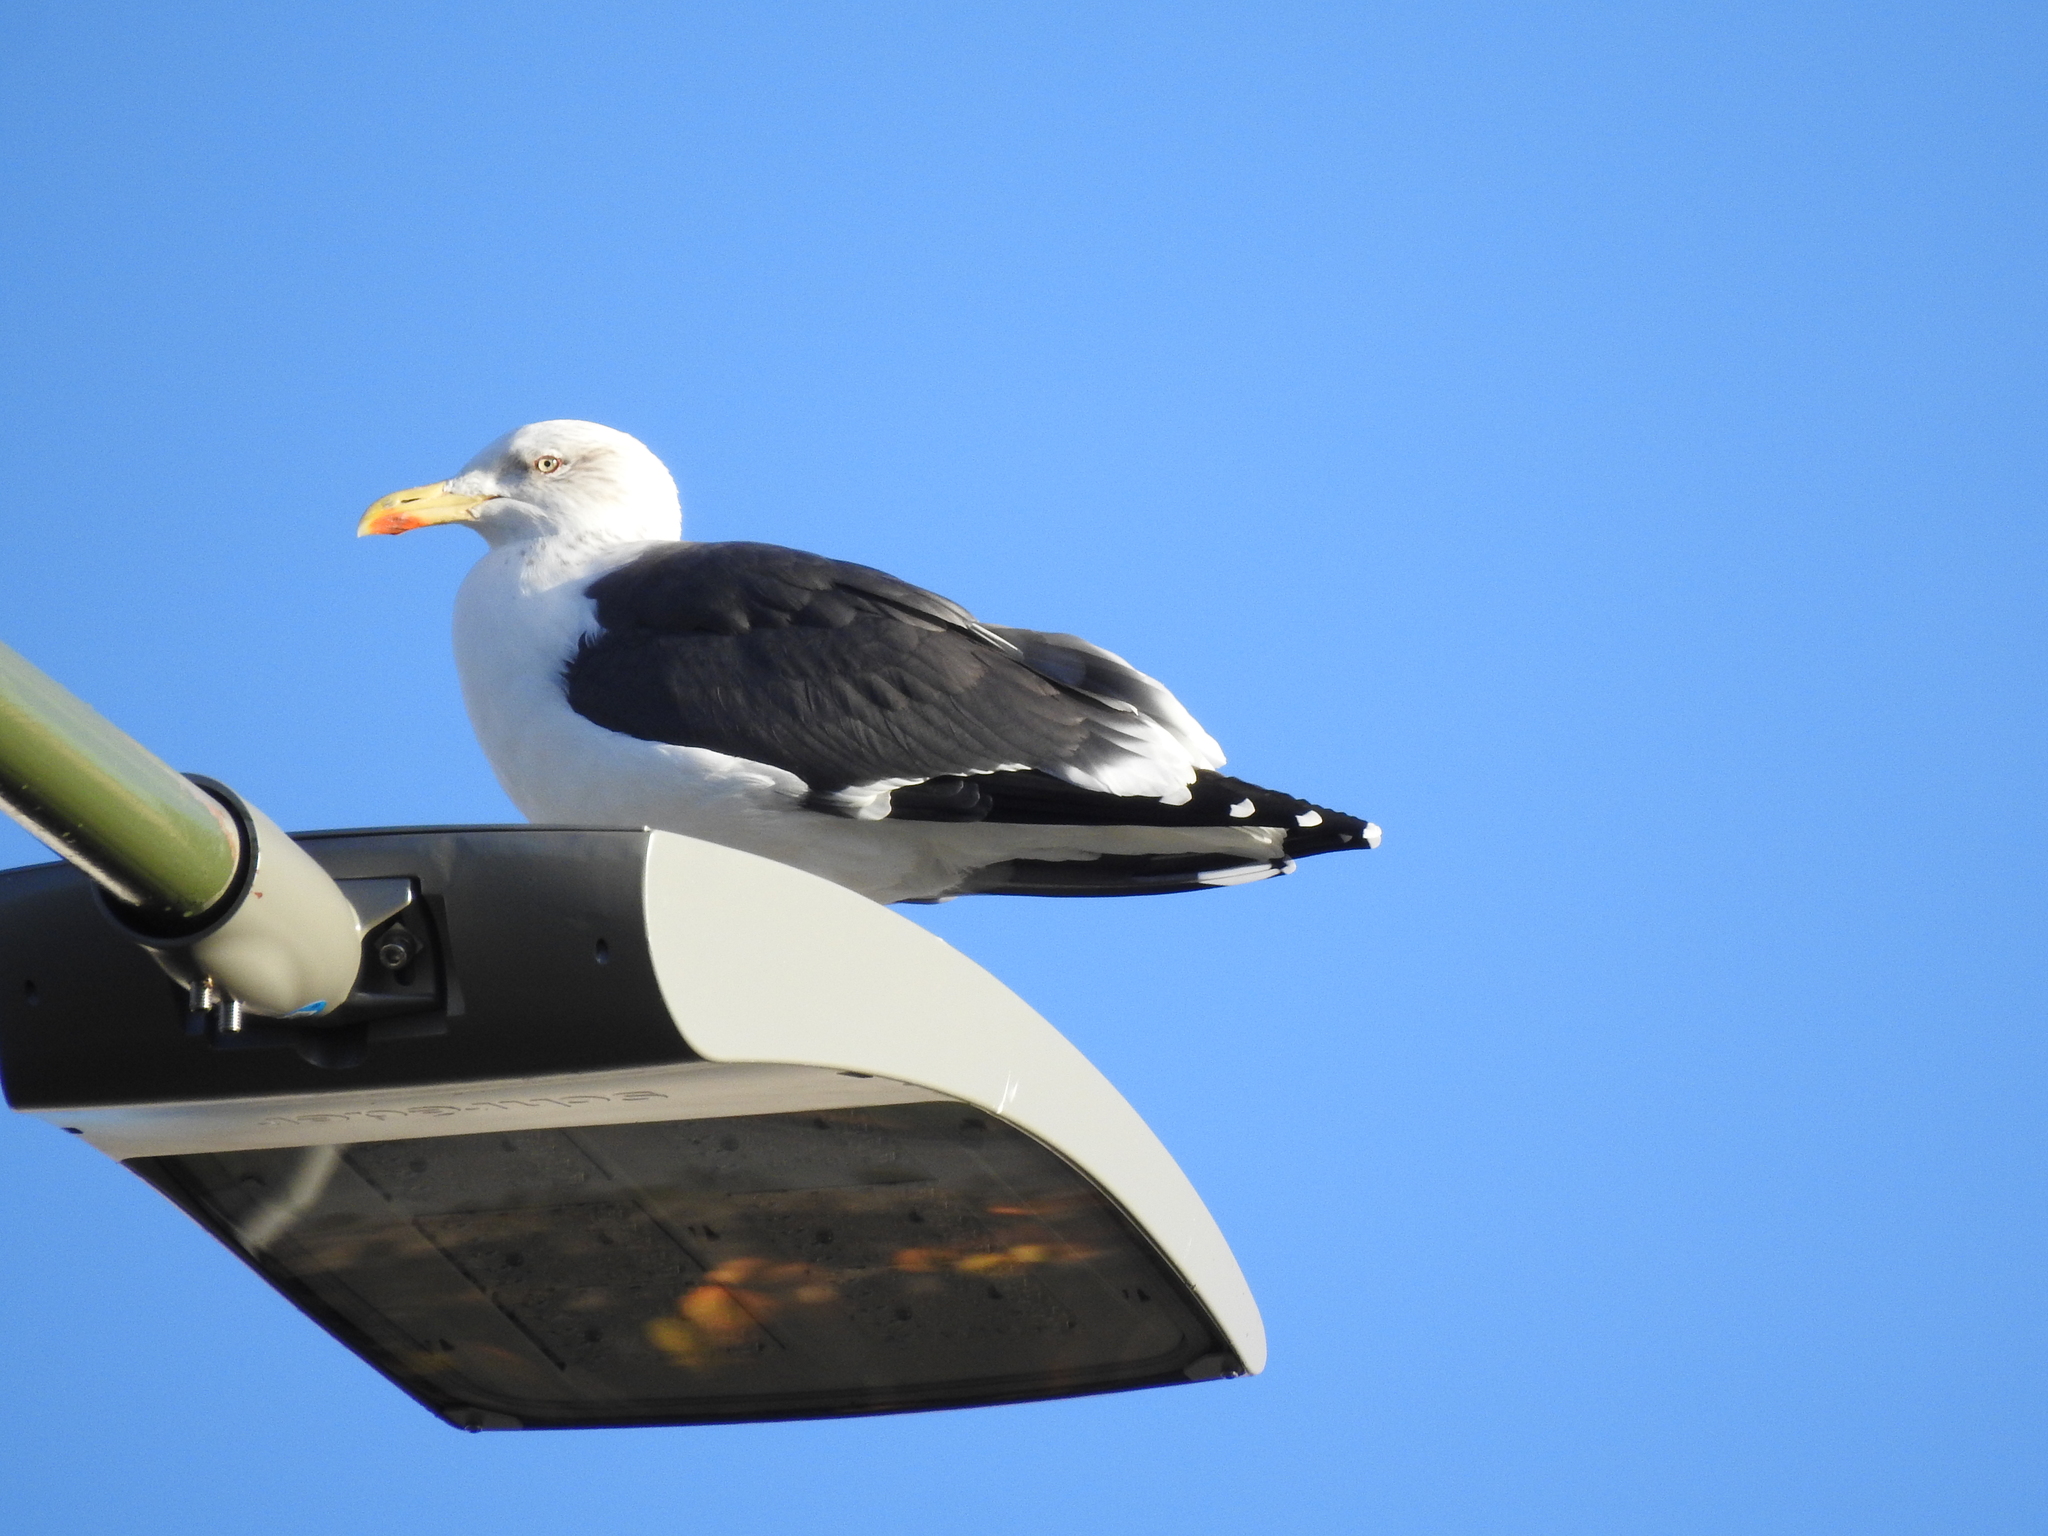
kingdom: Animalia
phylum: Chordata
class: Aves
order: Charadriiformes
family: Laridae
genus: Larus
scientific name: Larus fuscus
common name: Lesser black-backed gull
